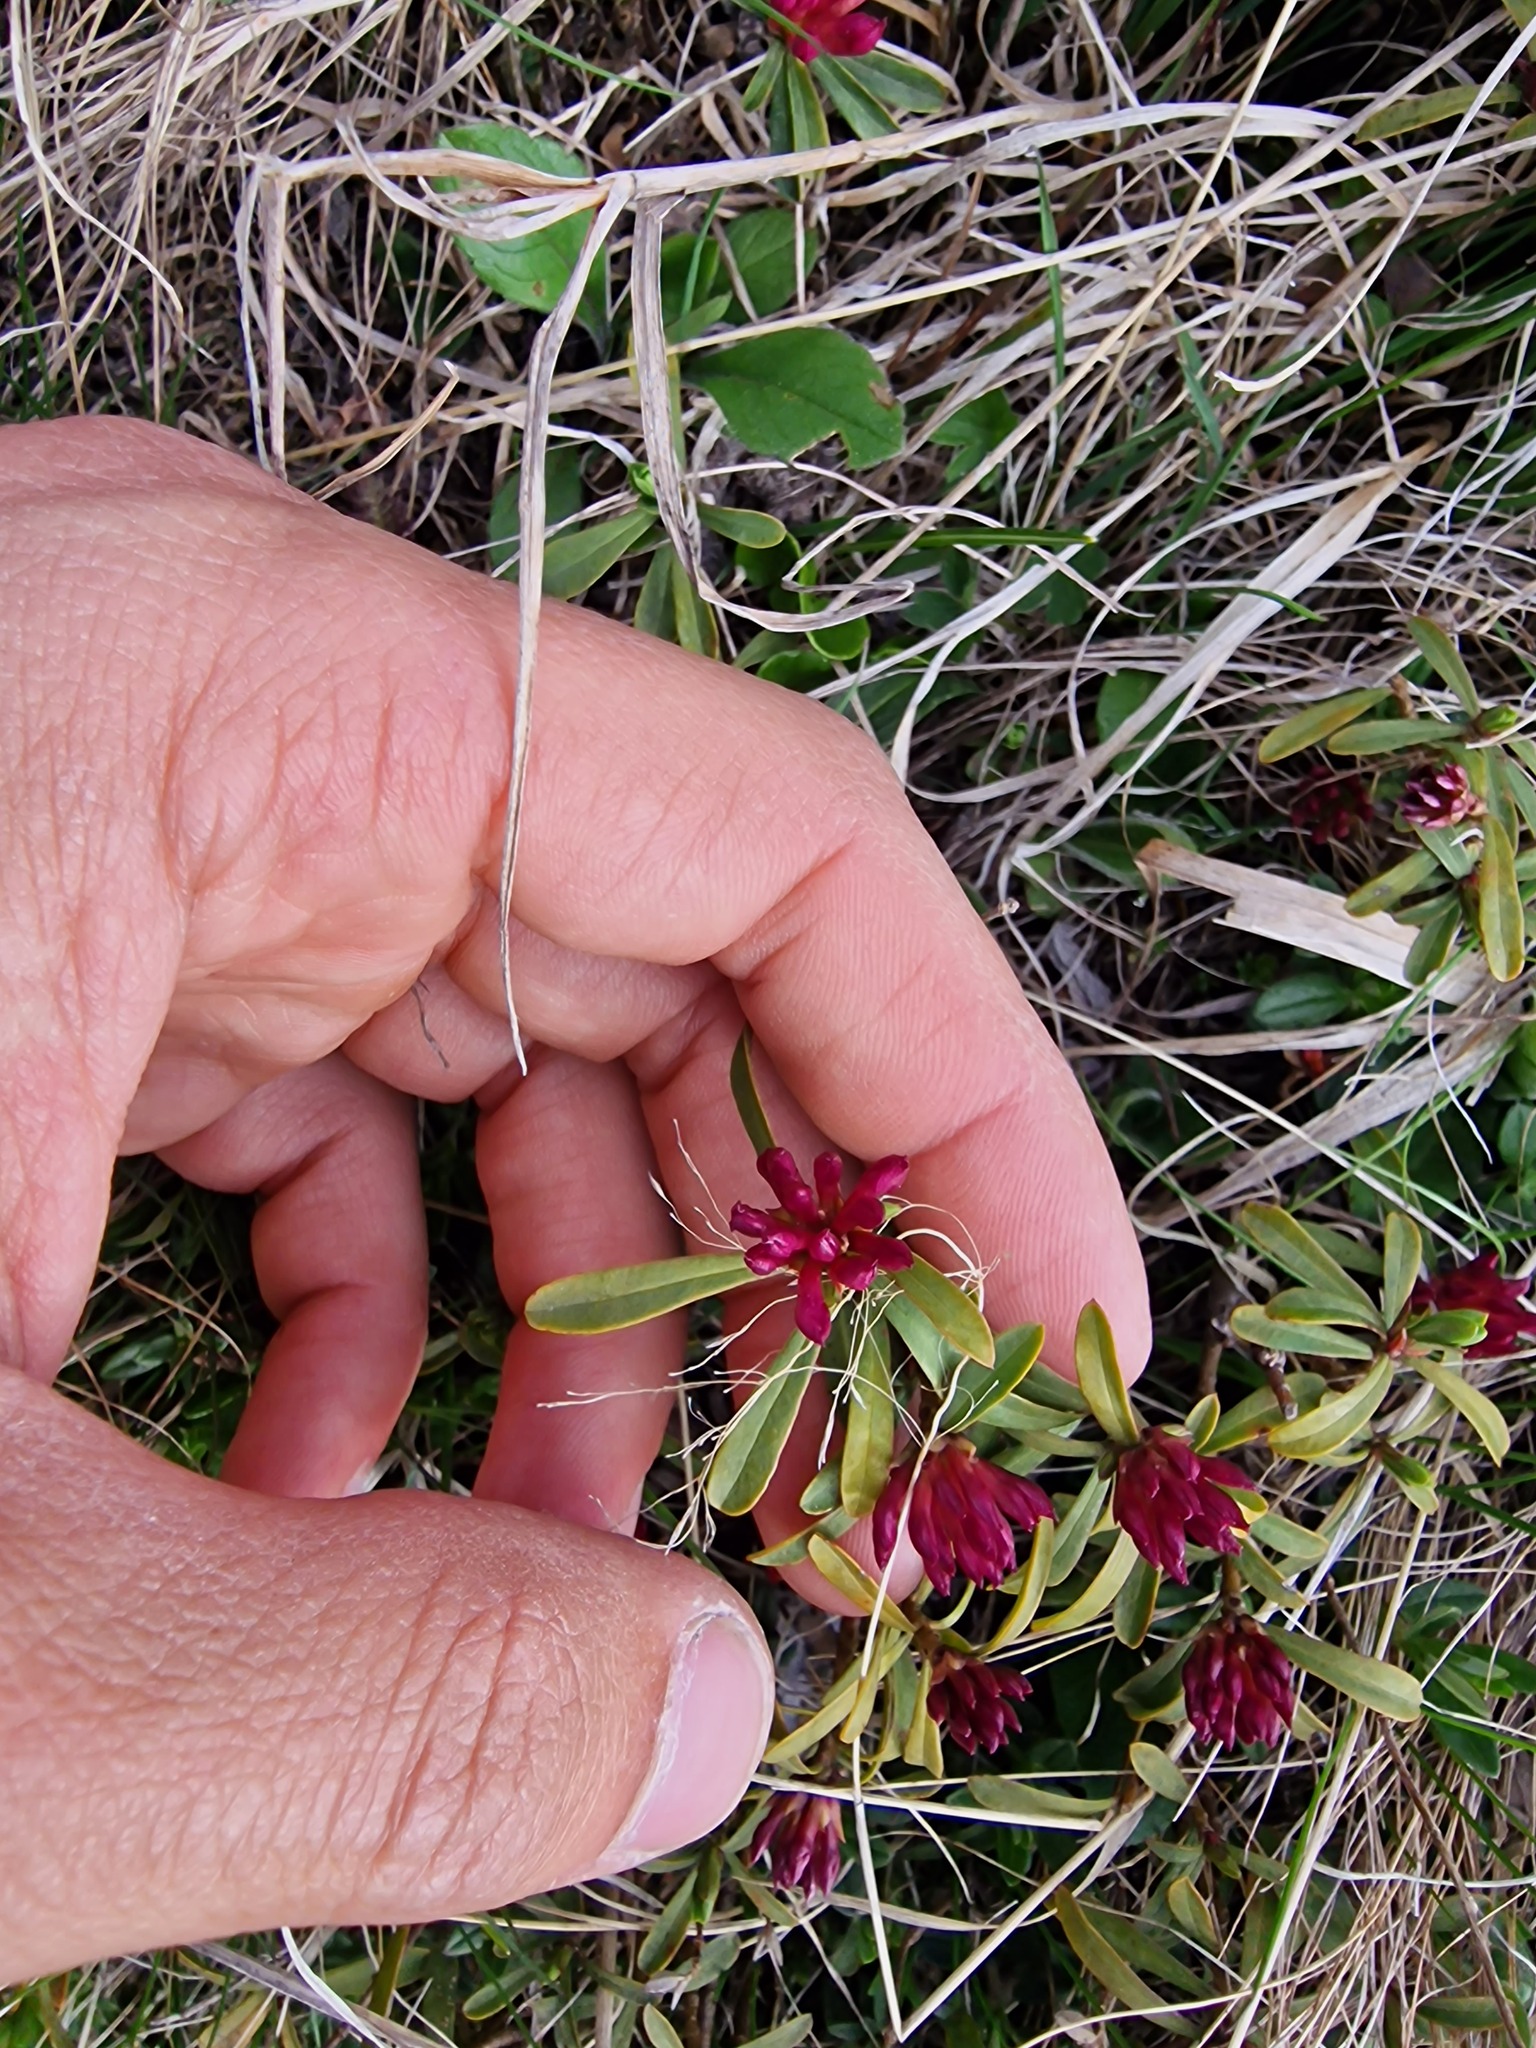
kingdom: Plantae
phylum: Tracheophyta
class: Magnoliopsida
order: Malvales
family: Thymelaeaceae
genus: Daphne
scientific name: Daphne striata
